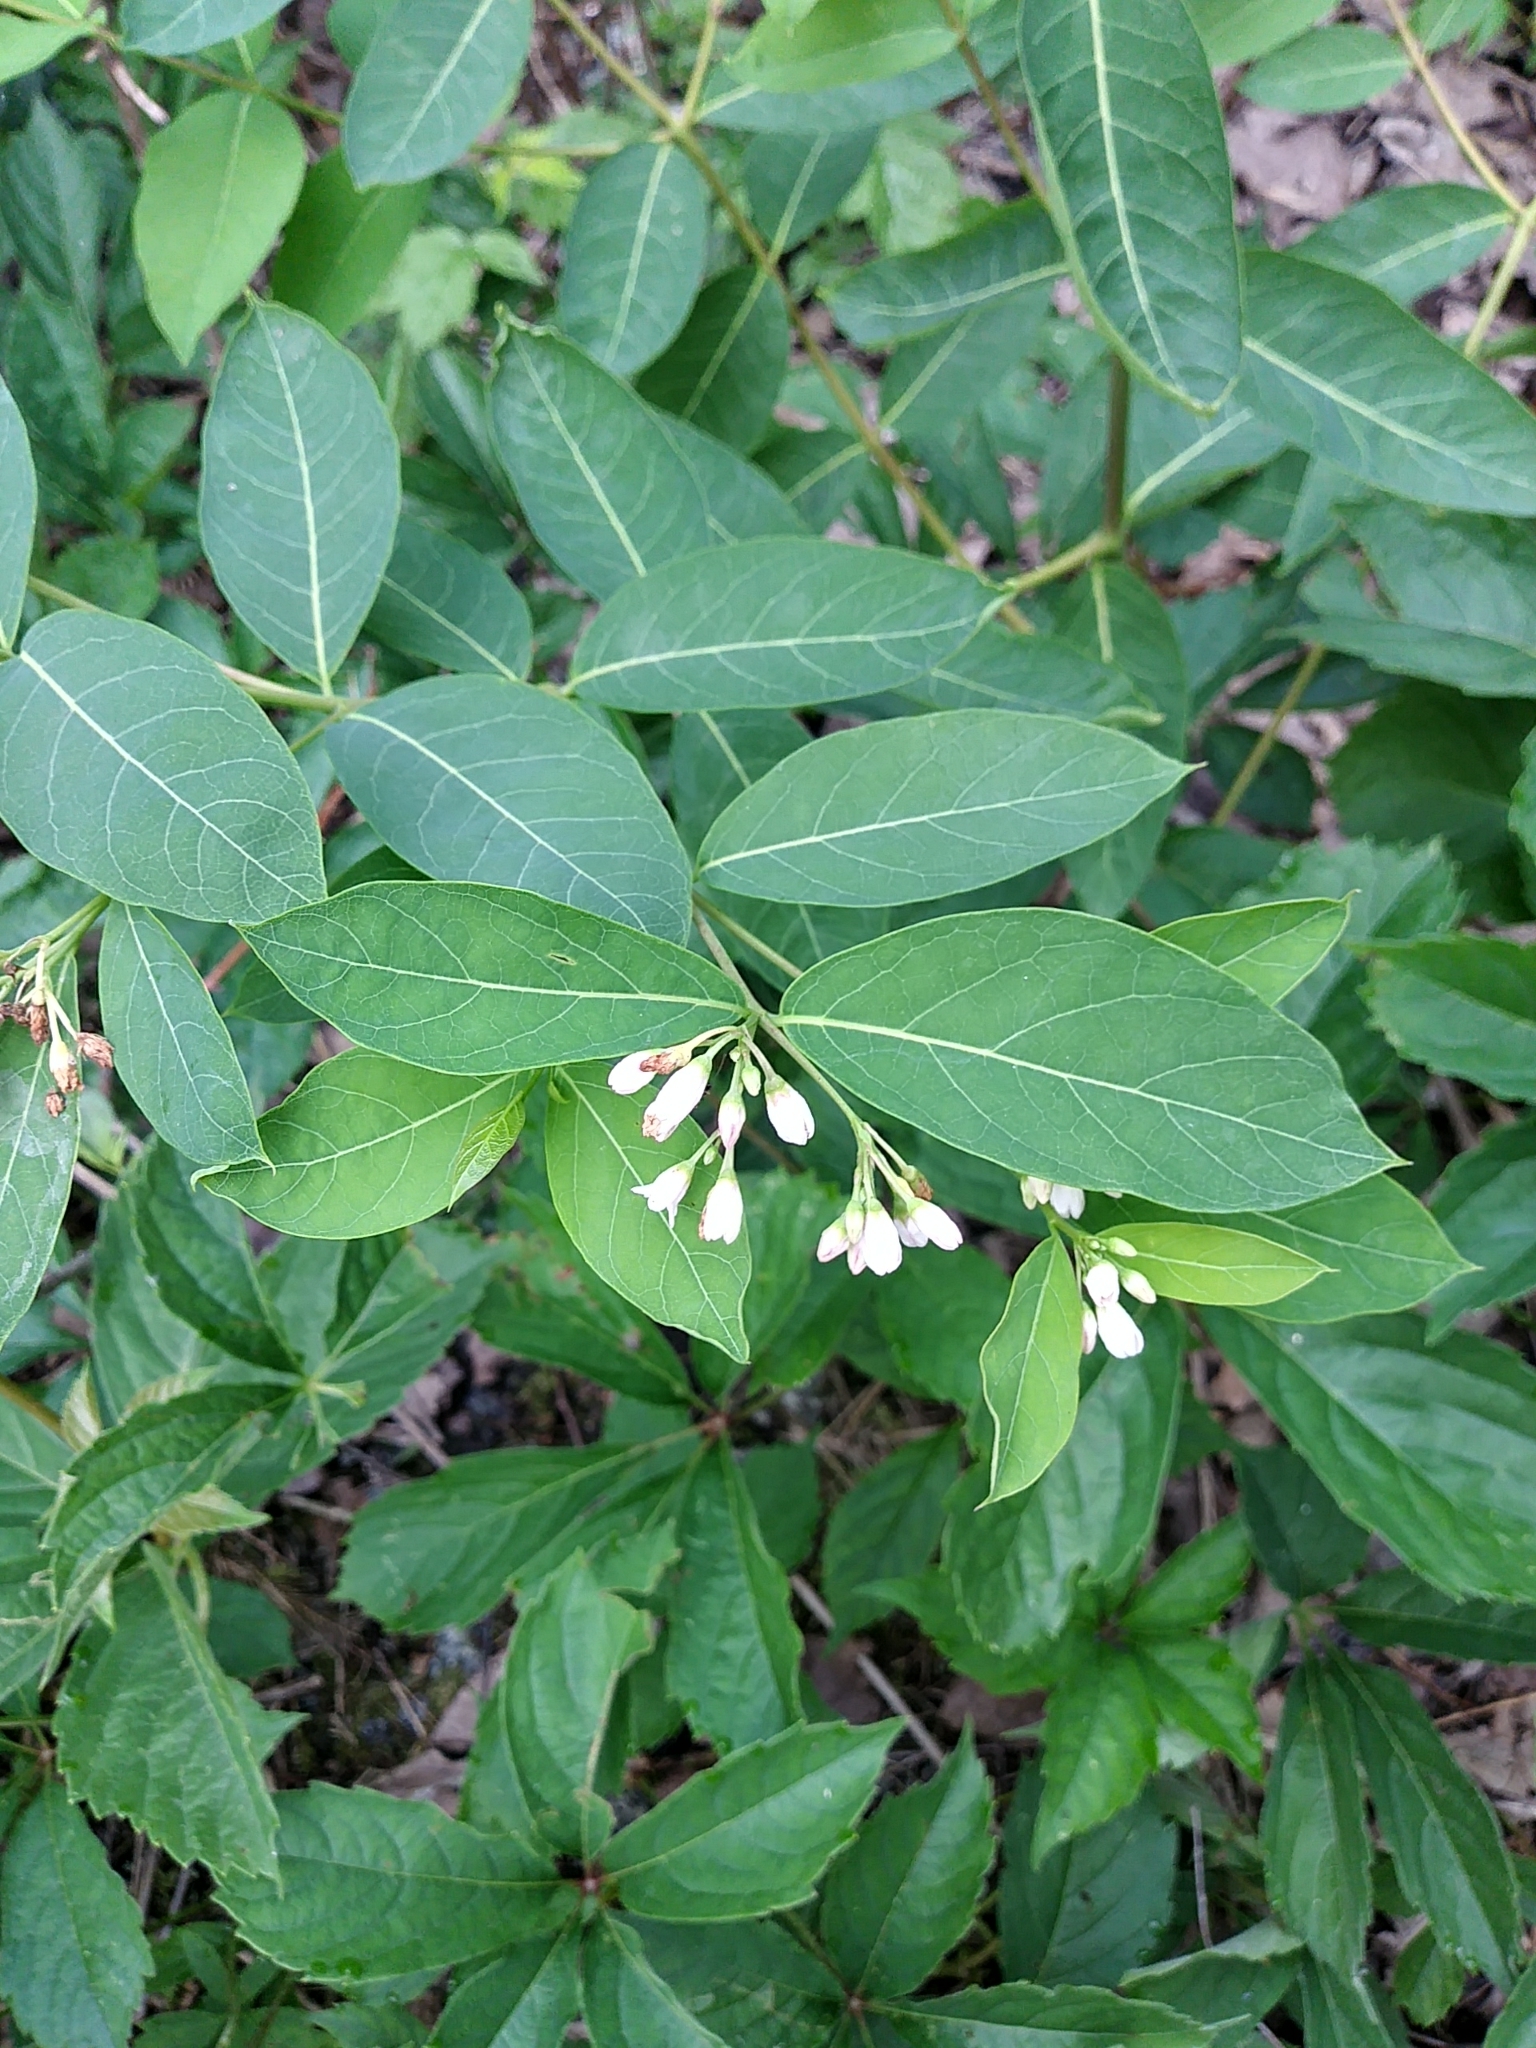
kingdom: Plantae
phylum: Tracheophyta
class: Magnoliopsida
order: Gentianales
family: Apocynaceae
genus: Apocynum
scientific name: Apocynum androsaemifolium
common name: Spreading dogbane
